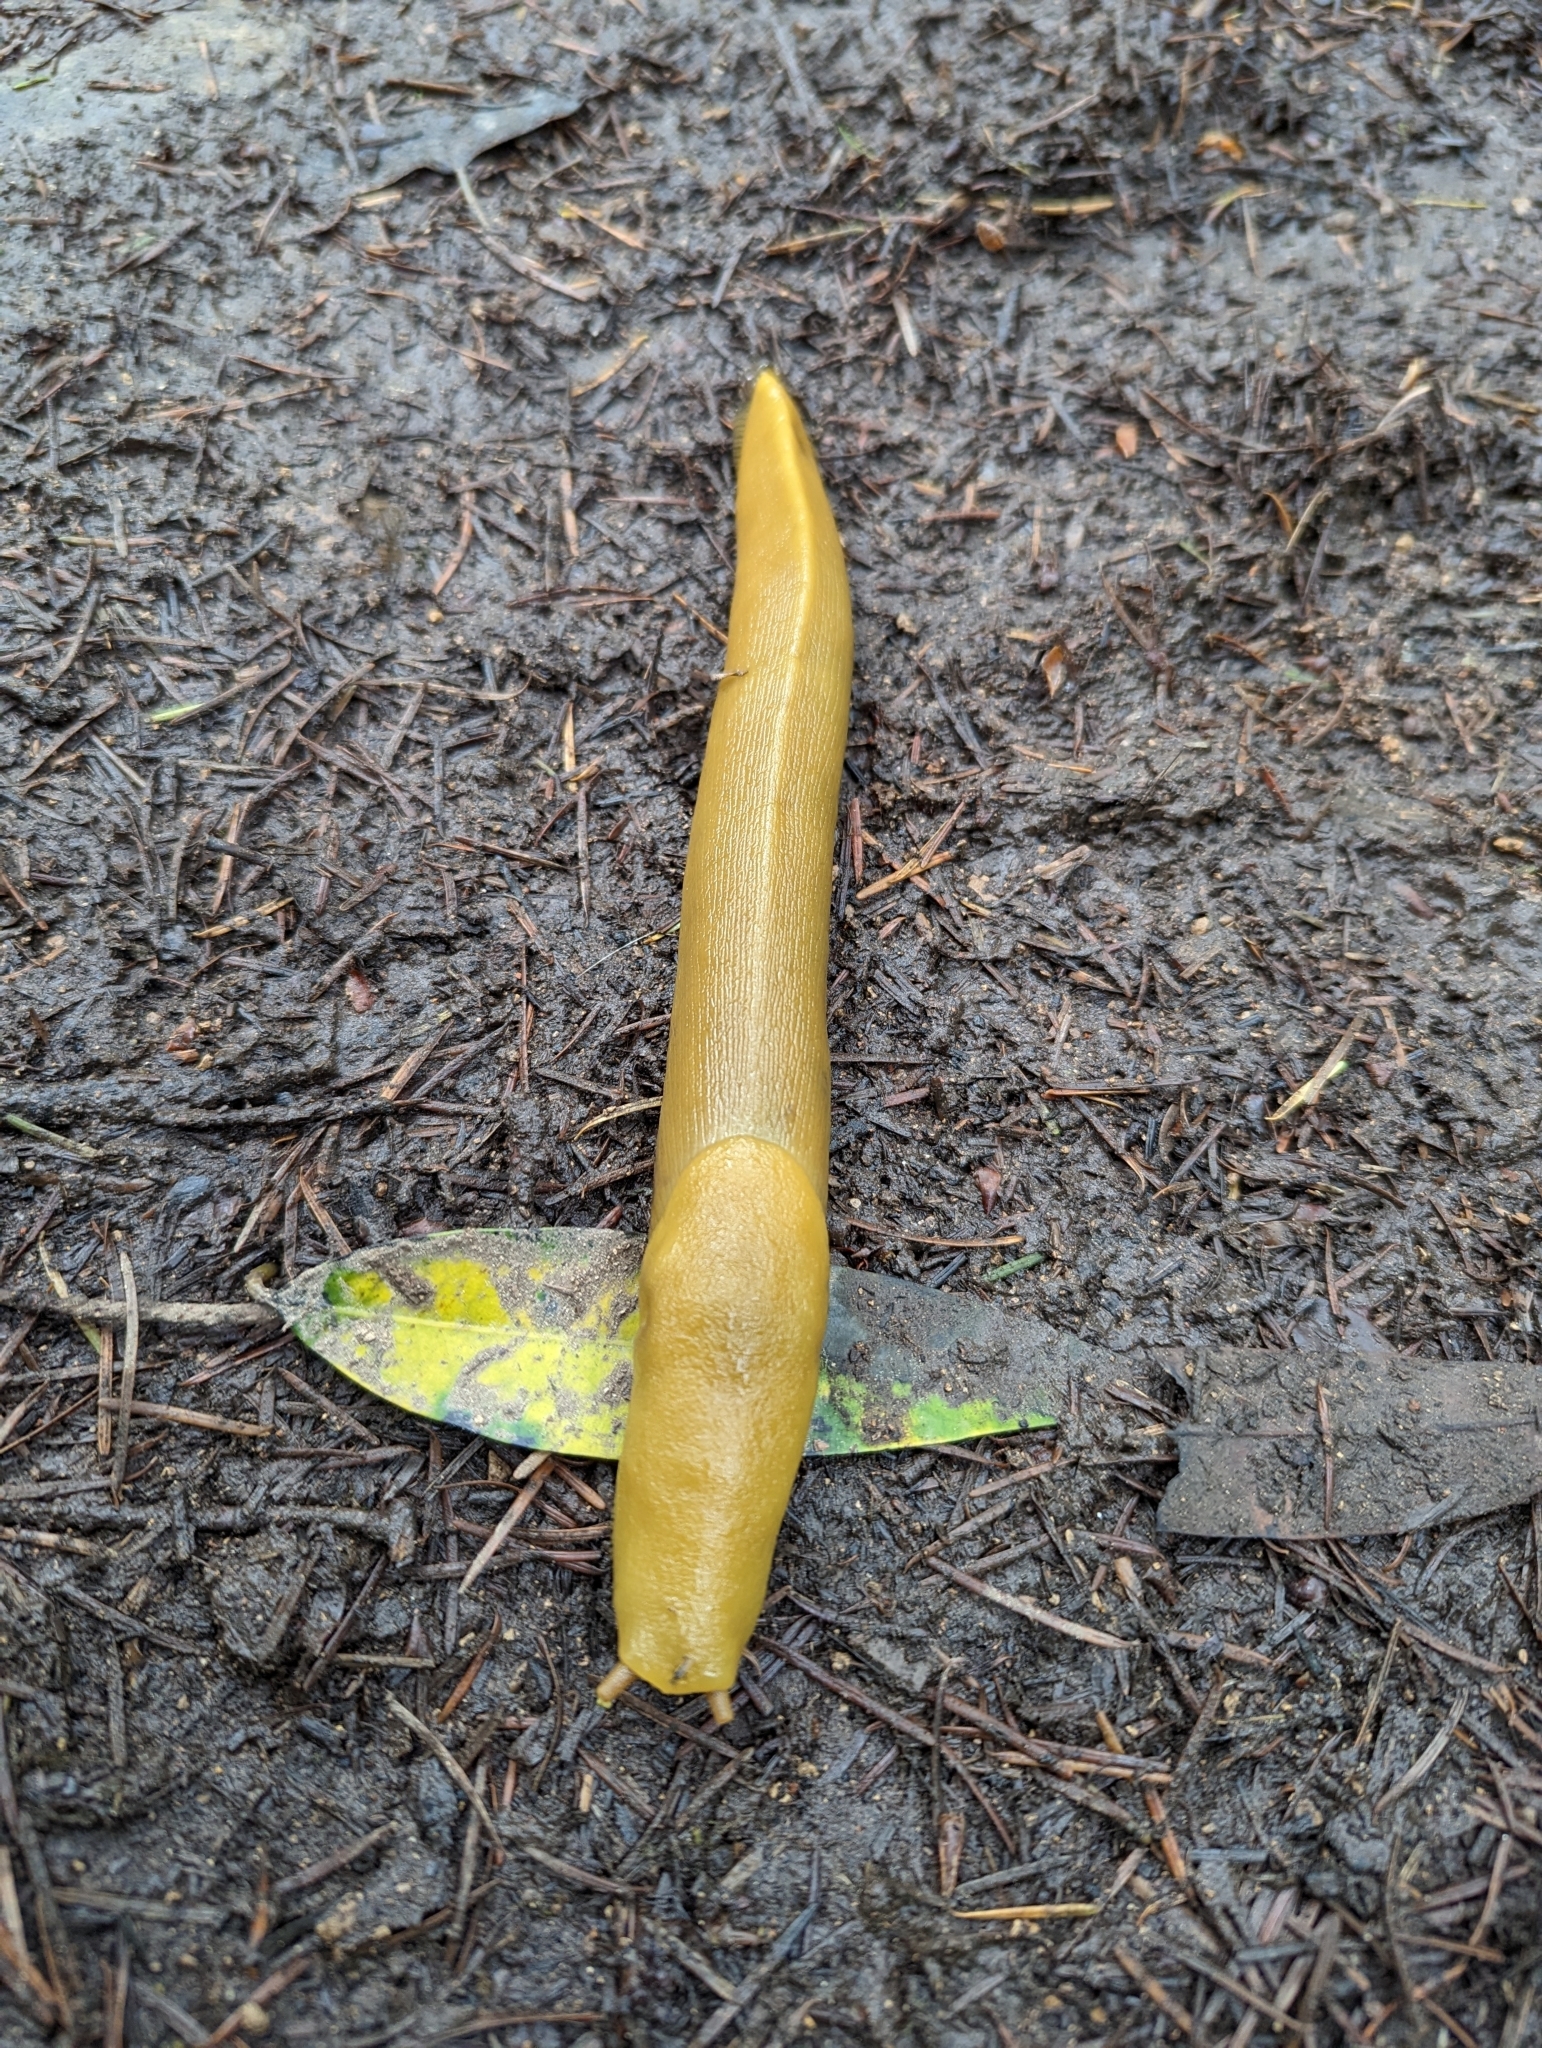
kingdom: Animalia
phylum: Mollusca
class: Gastropoda
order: Stylommatophora
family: Ariolimacidae
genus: Ariolimax
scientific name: Ariolimax buttoni
